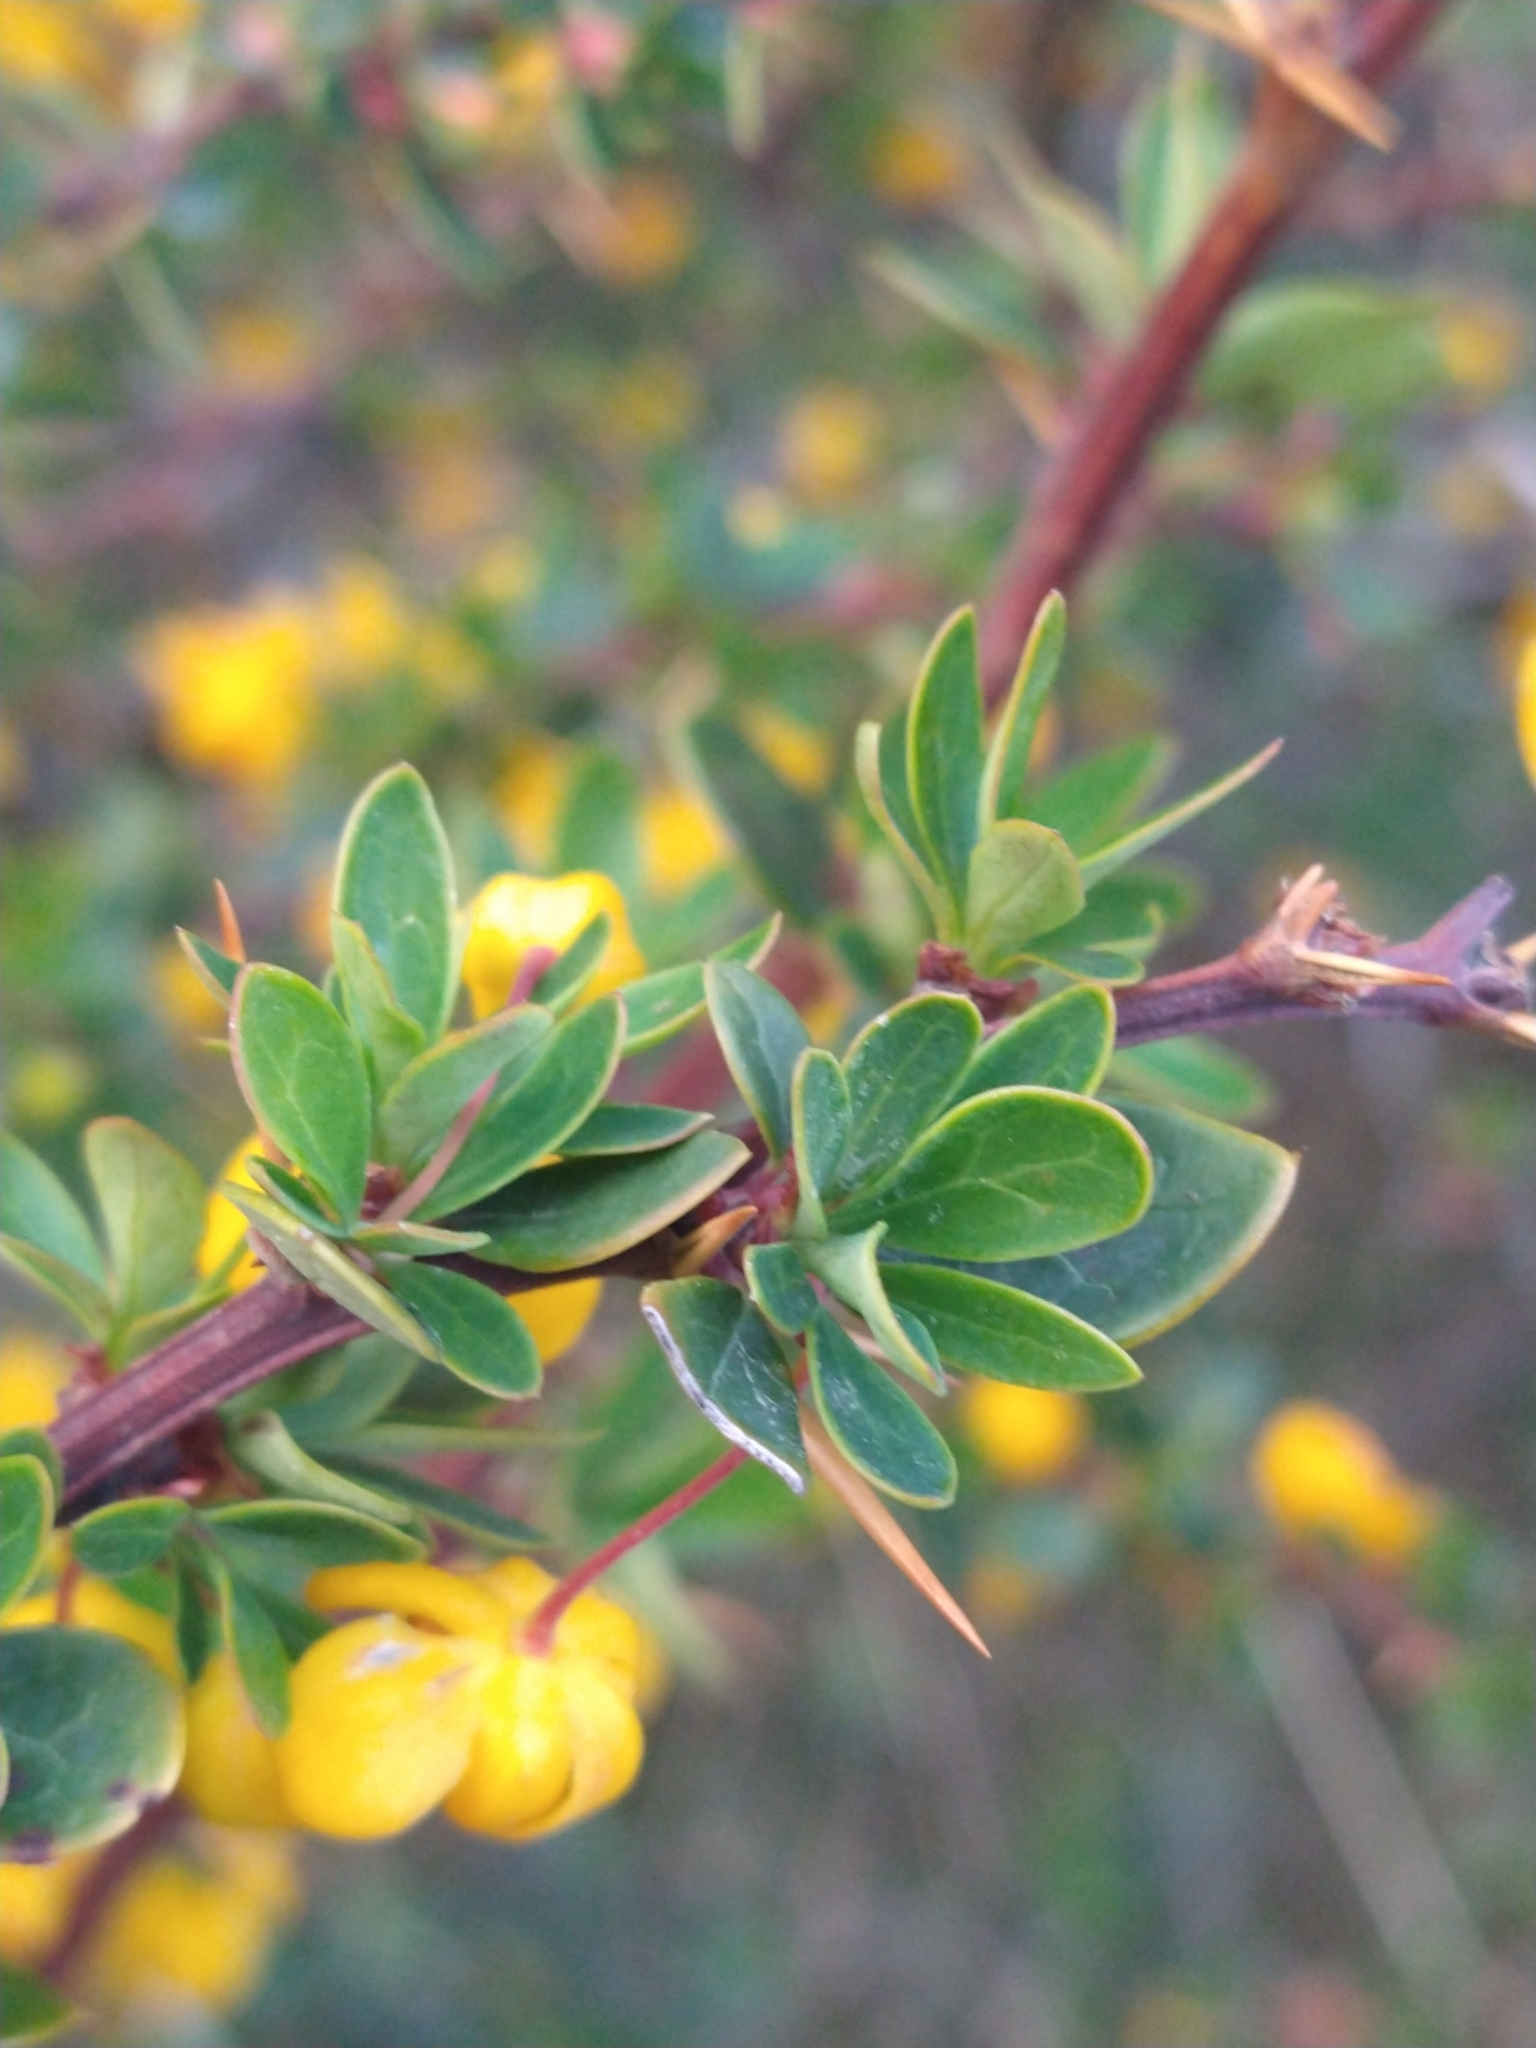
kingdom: Plantae
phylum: Tracheophyta
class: Magnoliopsida
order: Ranunculales
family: Berberidaceae
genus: Berberis
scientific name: Berberis microphylla
